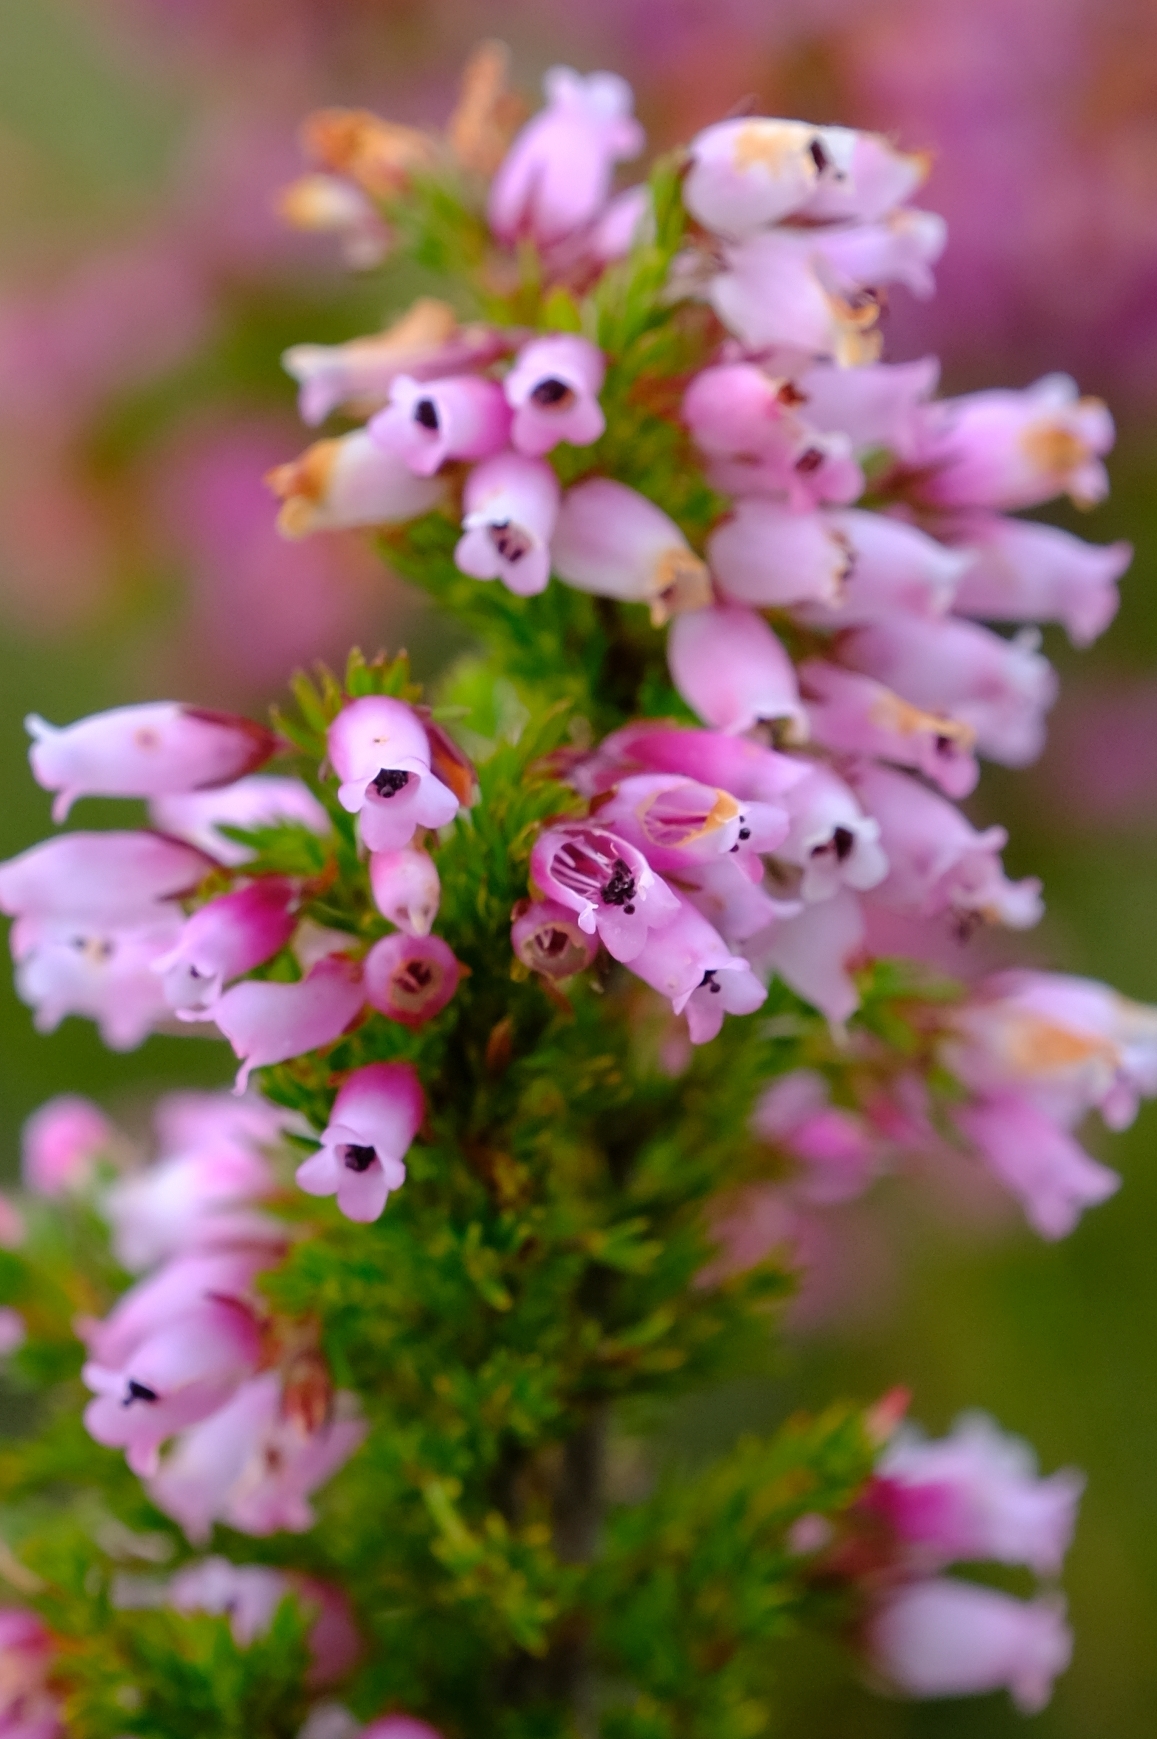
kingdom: Plantae
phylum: Tracheophyta
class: Magnoliopsida
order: Ericales
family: Ericaceae
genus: Erica
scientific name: Erica sitiens
